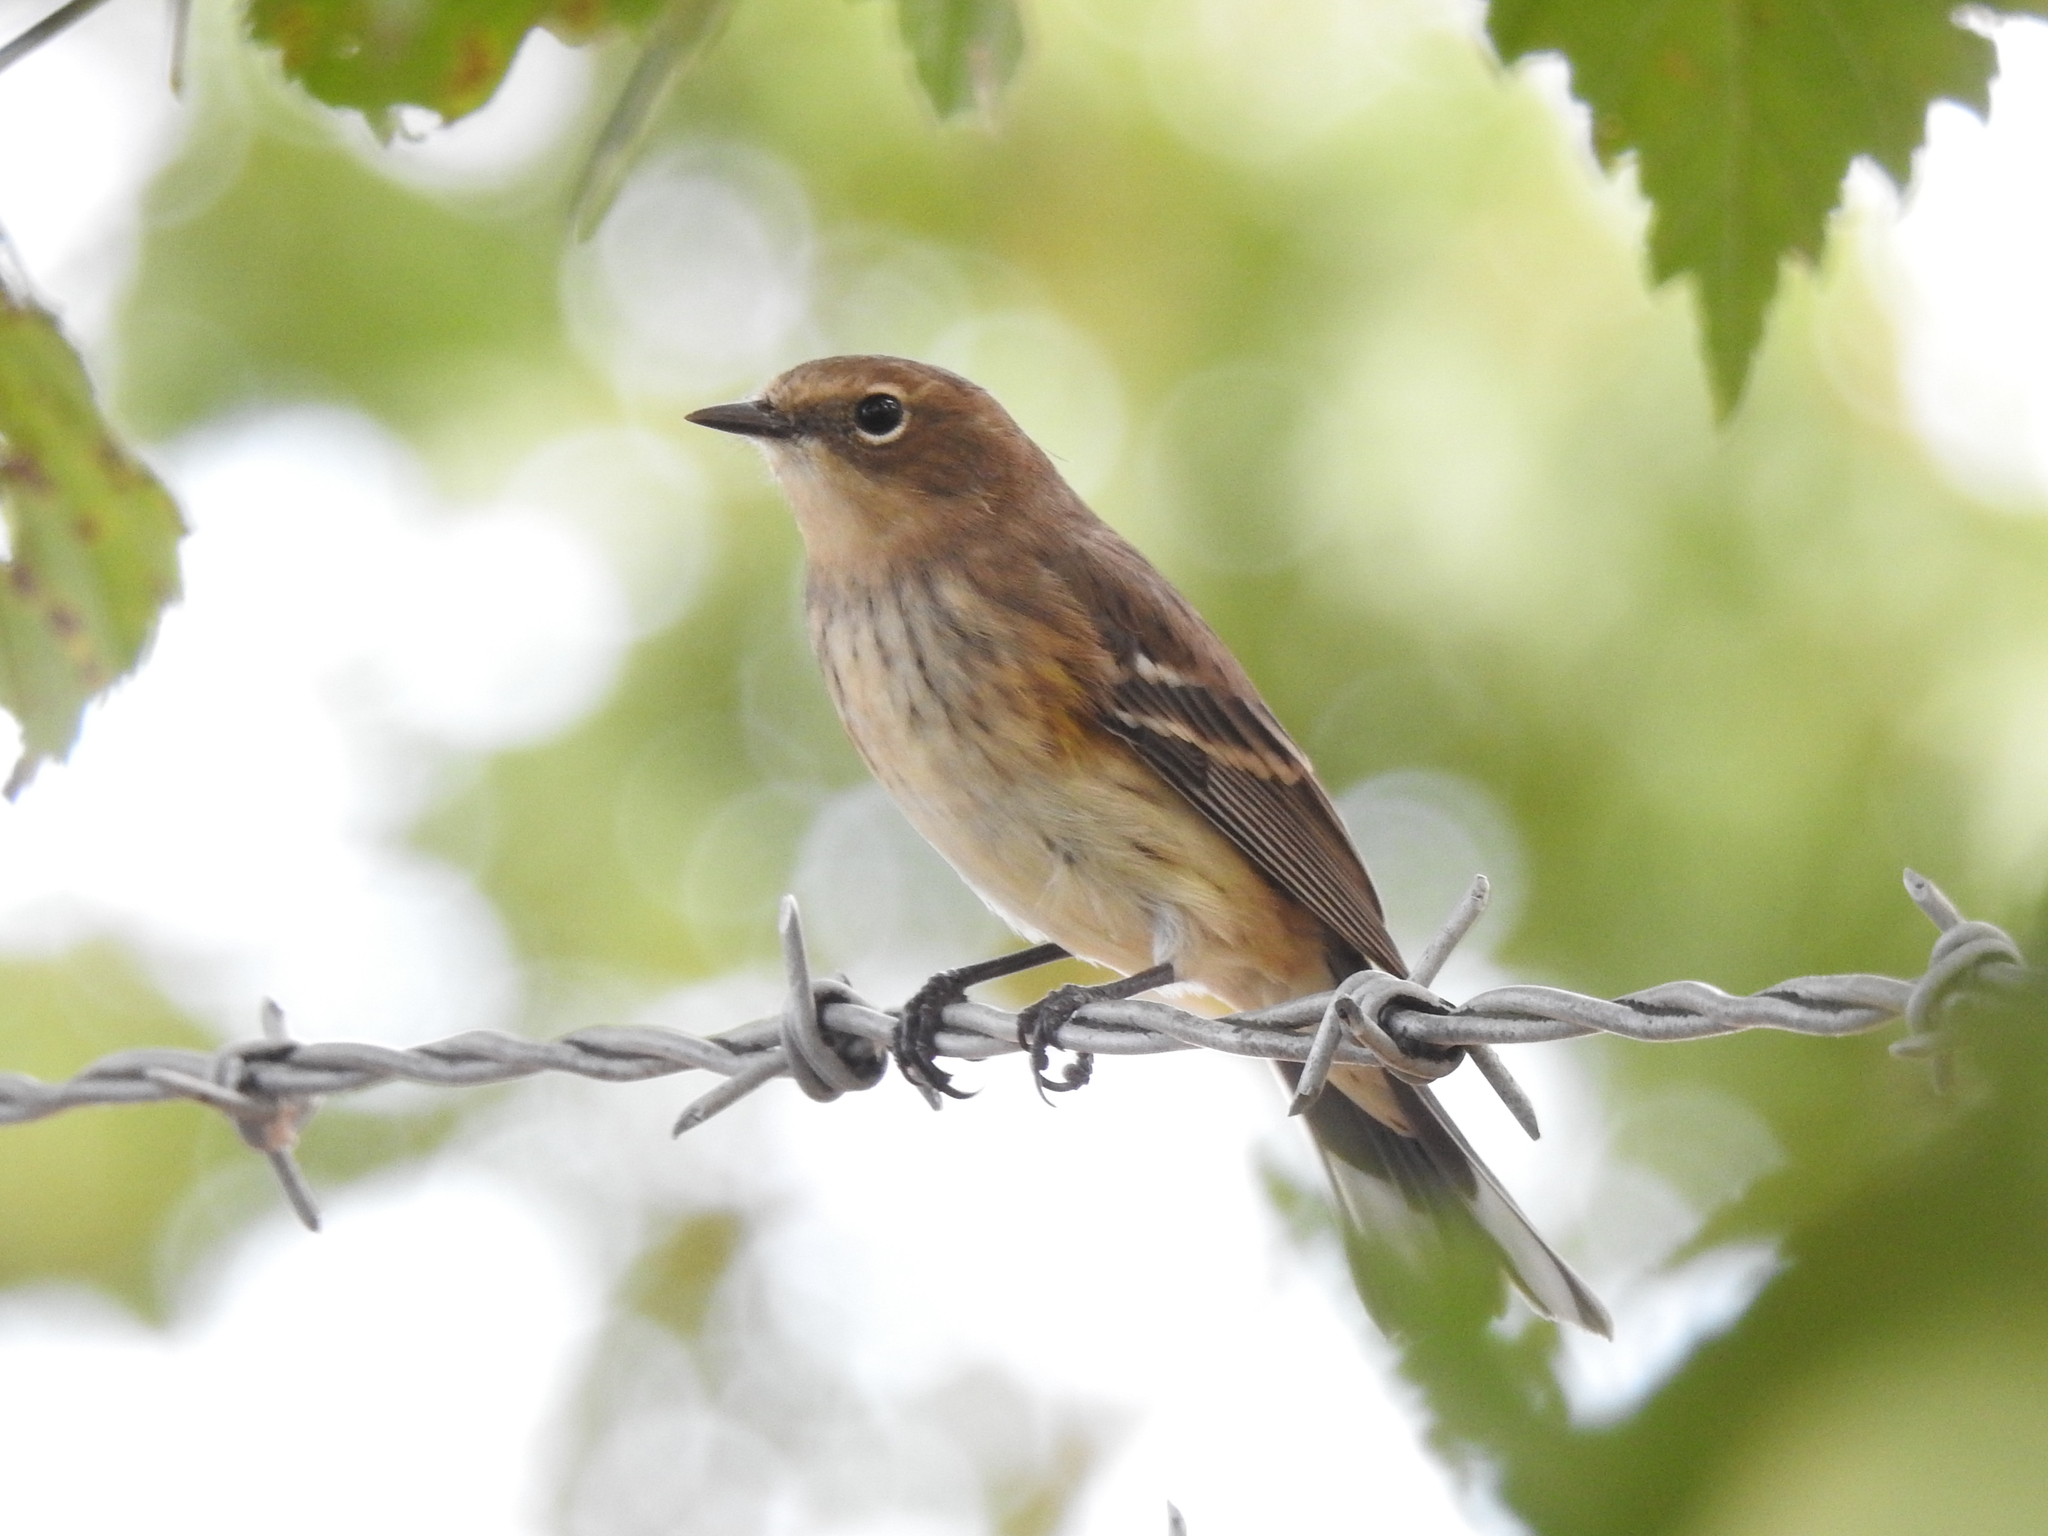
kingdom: Animalia
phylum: Chordata
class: Aves
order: Passeriformes
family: Parulidae
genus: Setophaga
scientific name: Setophaga coronata
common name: Myrtle warbler
